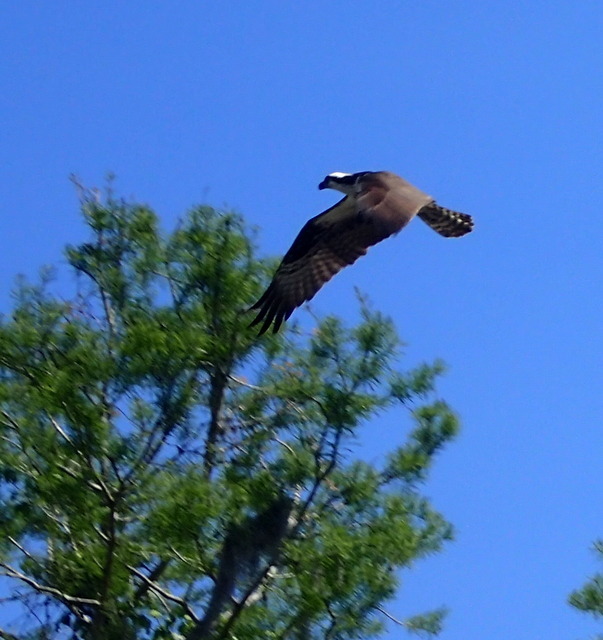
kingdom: Animalia
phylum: Chordata
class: Aves
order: Accipitriformes
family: Pandionidae
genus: Pandion
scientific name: Pandion haliaetus
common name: Osprey
